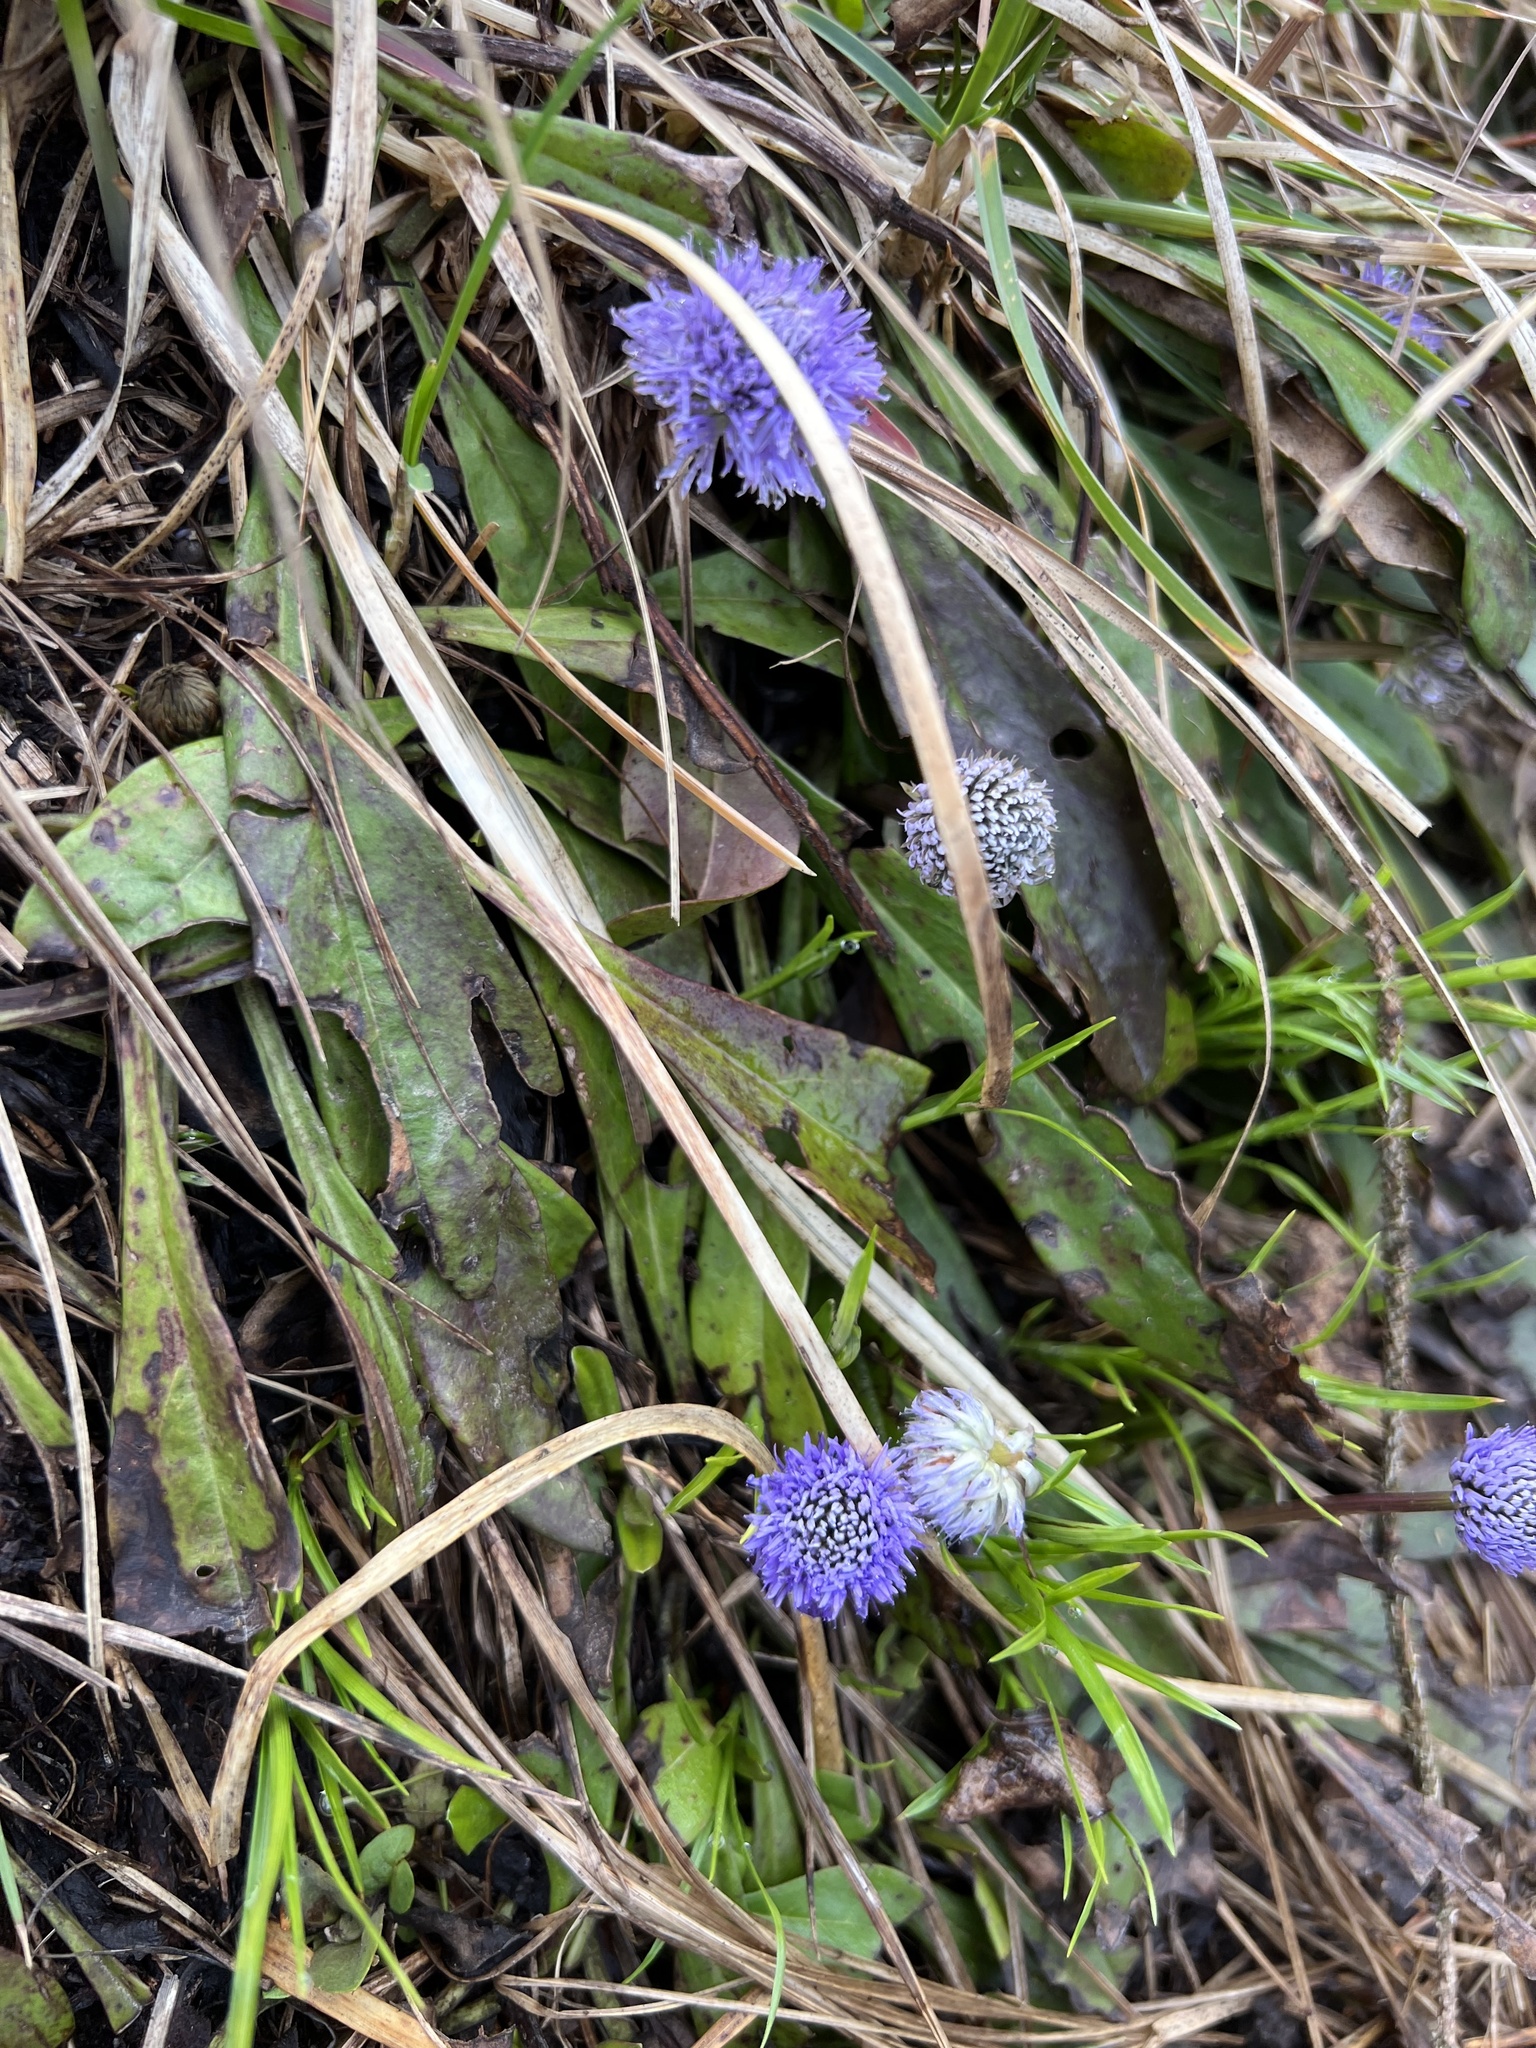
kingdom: Plantae
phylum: Tracheophyta
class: Magnoliopsida
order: Lamiales
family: Plantaginaceae
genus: Globularia
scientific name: Globularia nudicaulis
